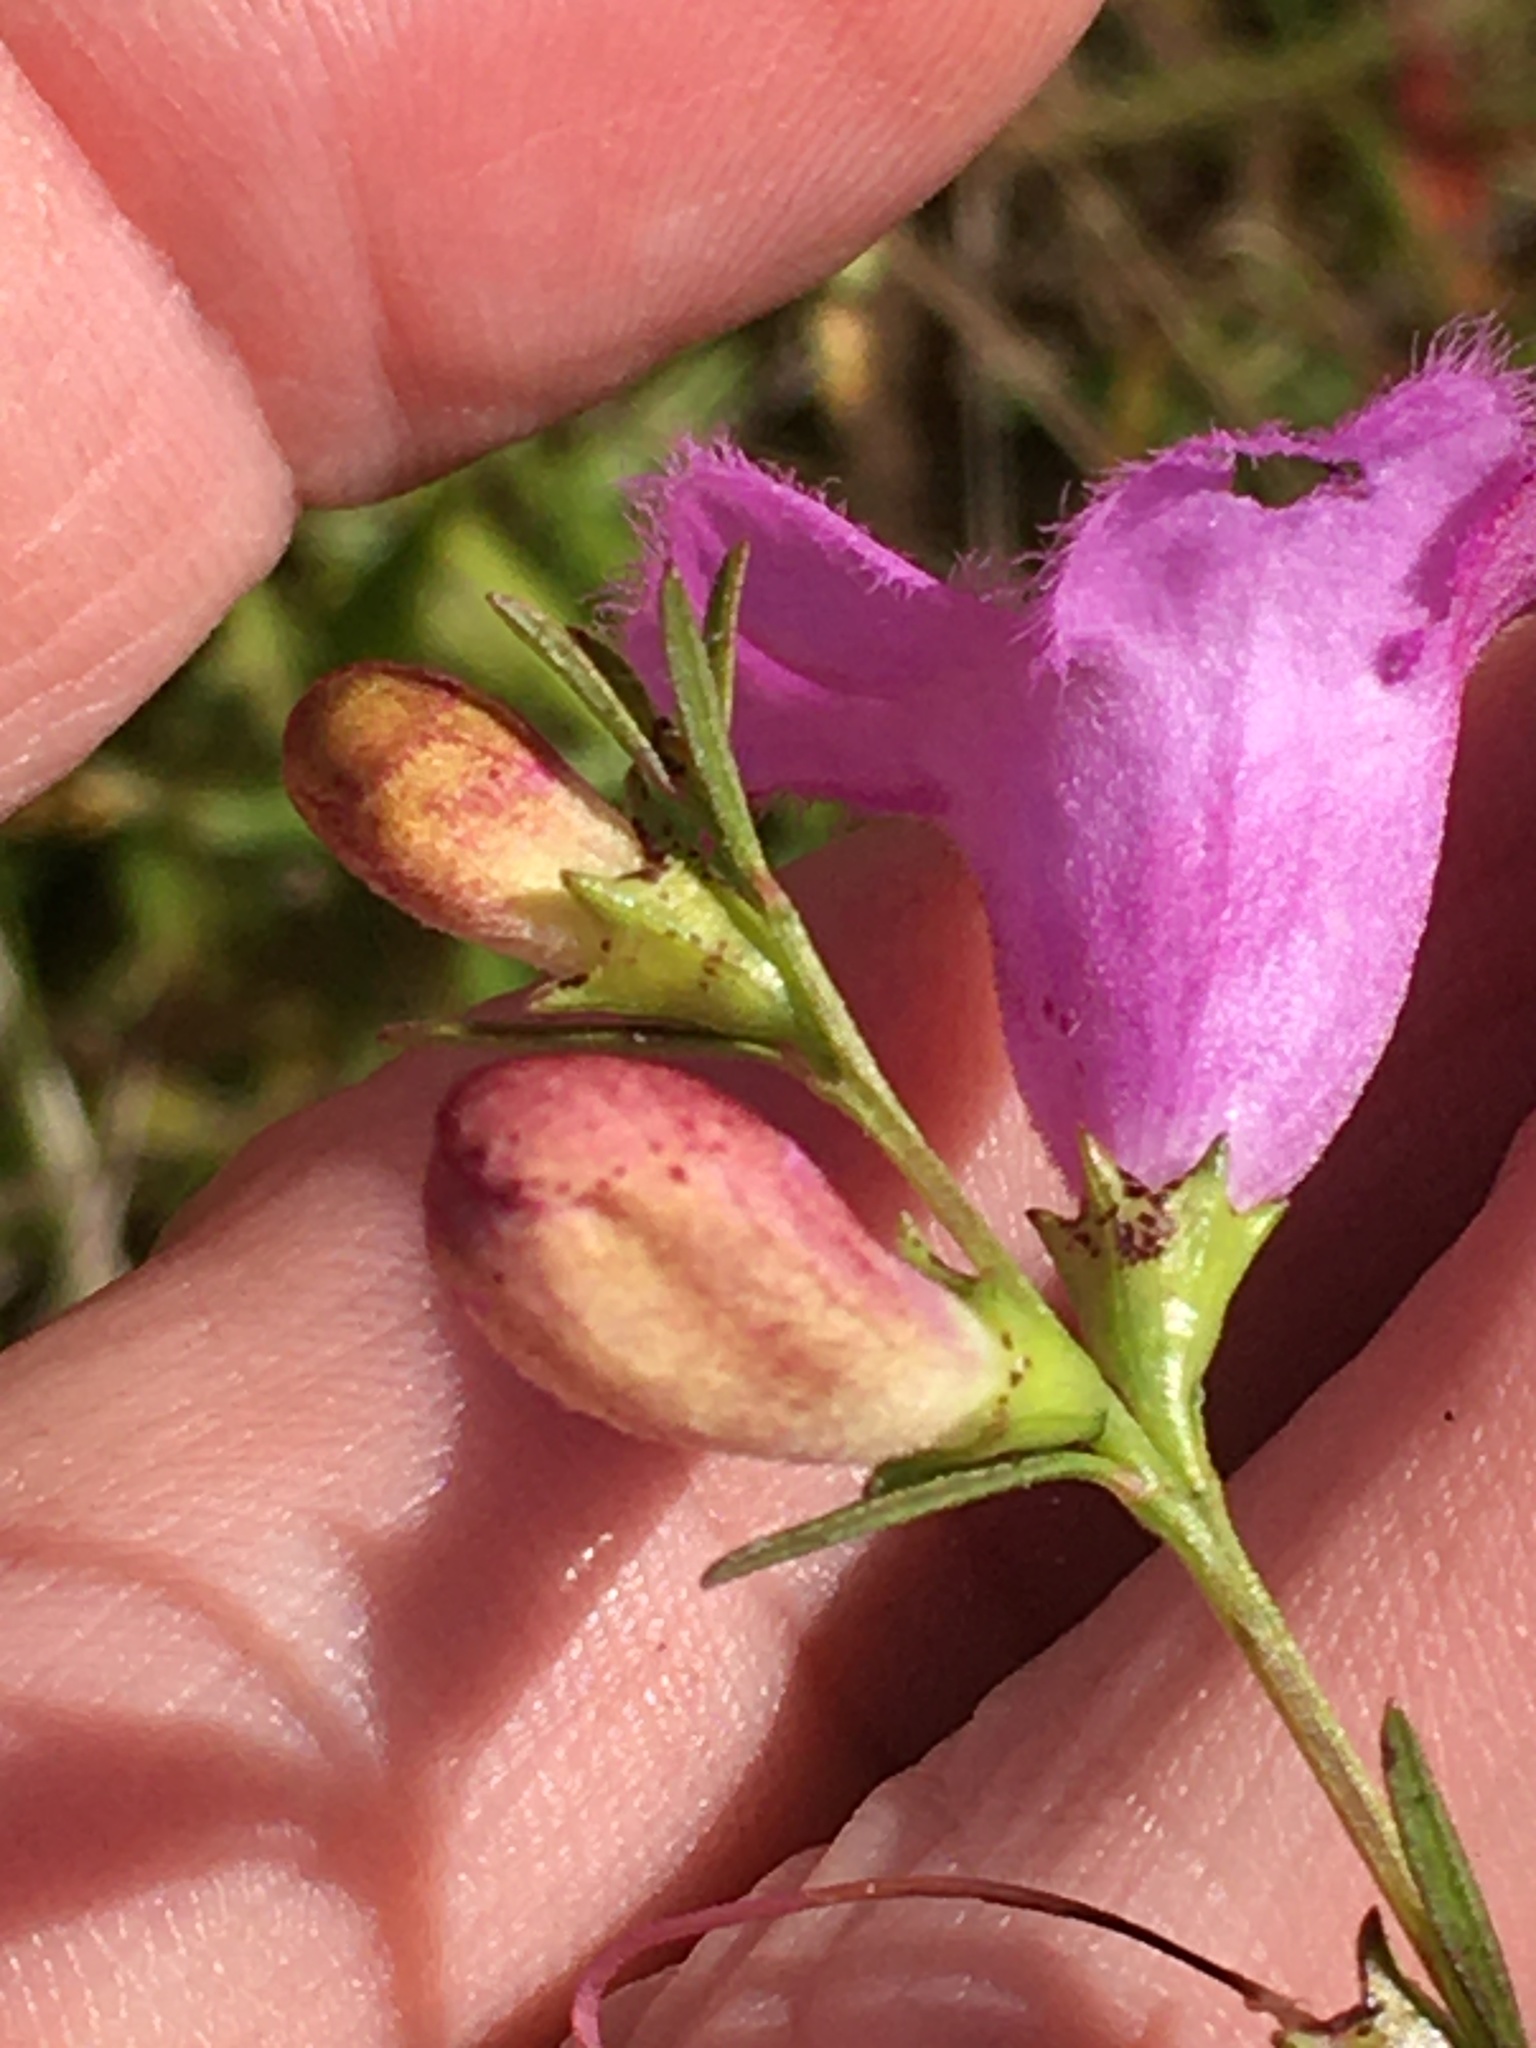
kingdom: Plantae
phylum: Tracheophyta
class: Magnoliopsida
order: Lamiales
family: Orobanchaceae
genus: Agalinis
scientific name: Agalinis purpurea
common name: Purple false foxglove
